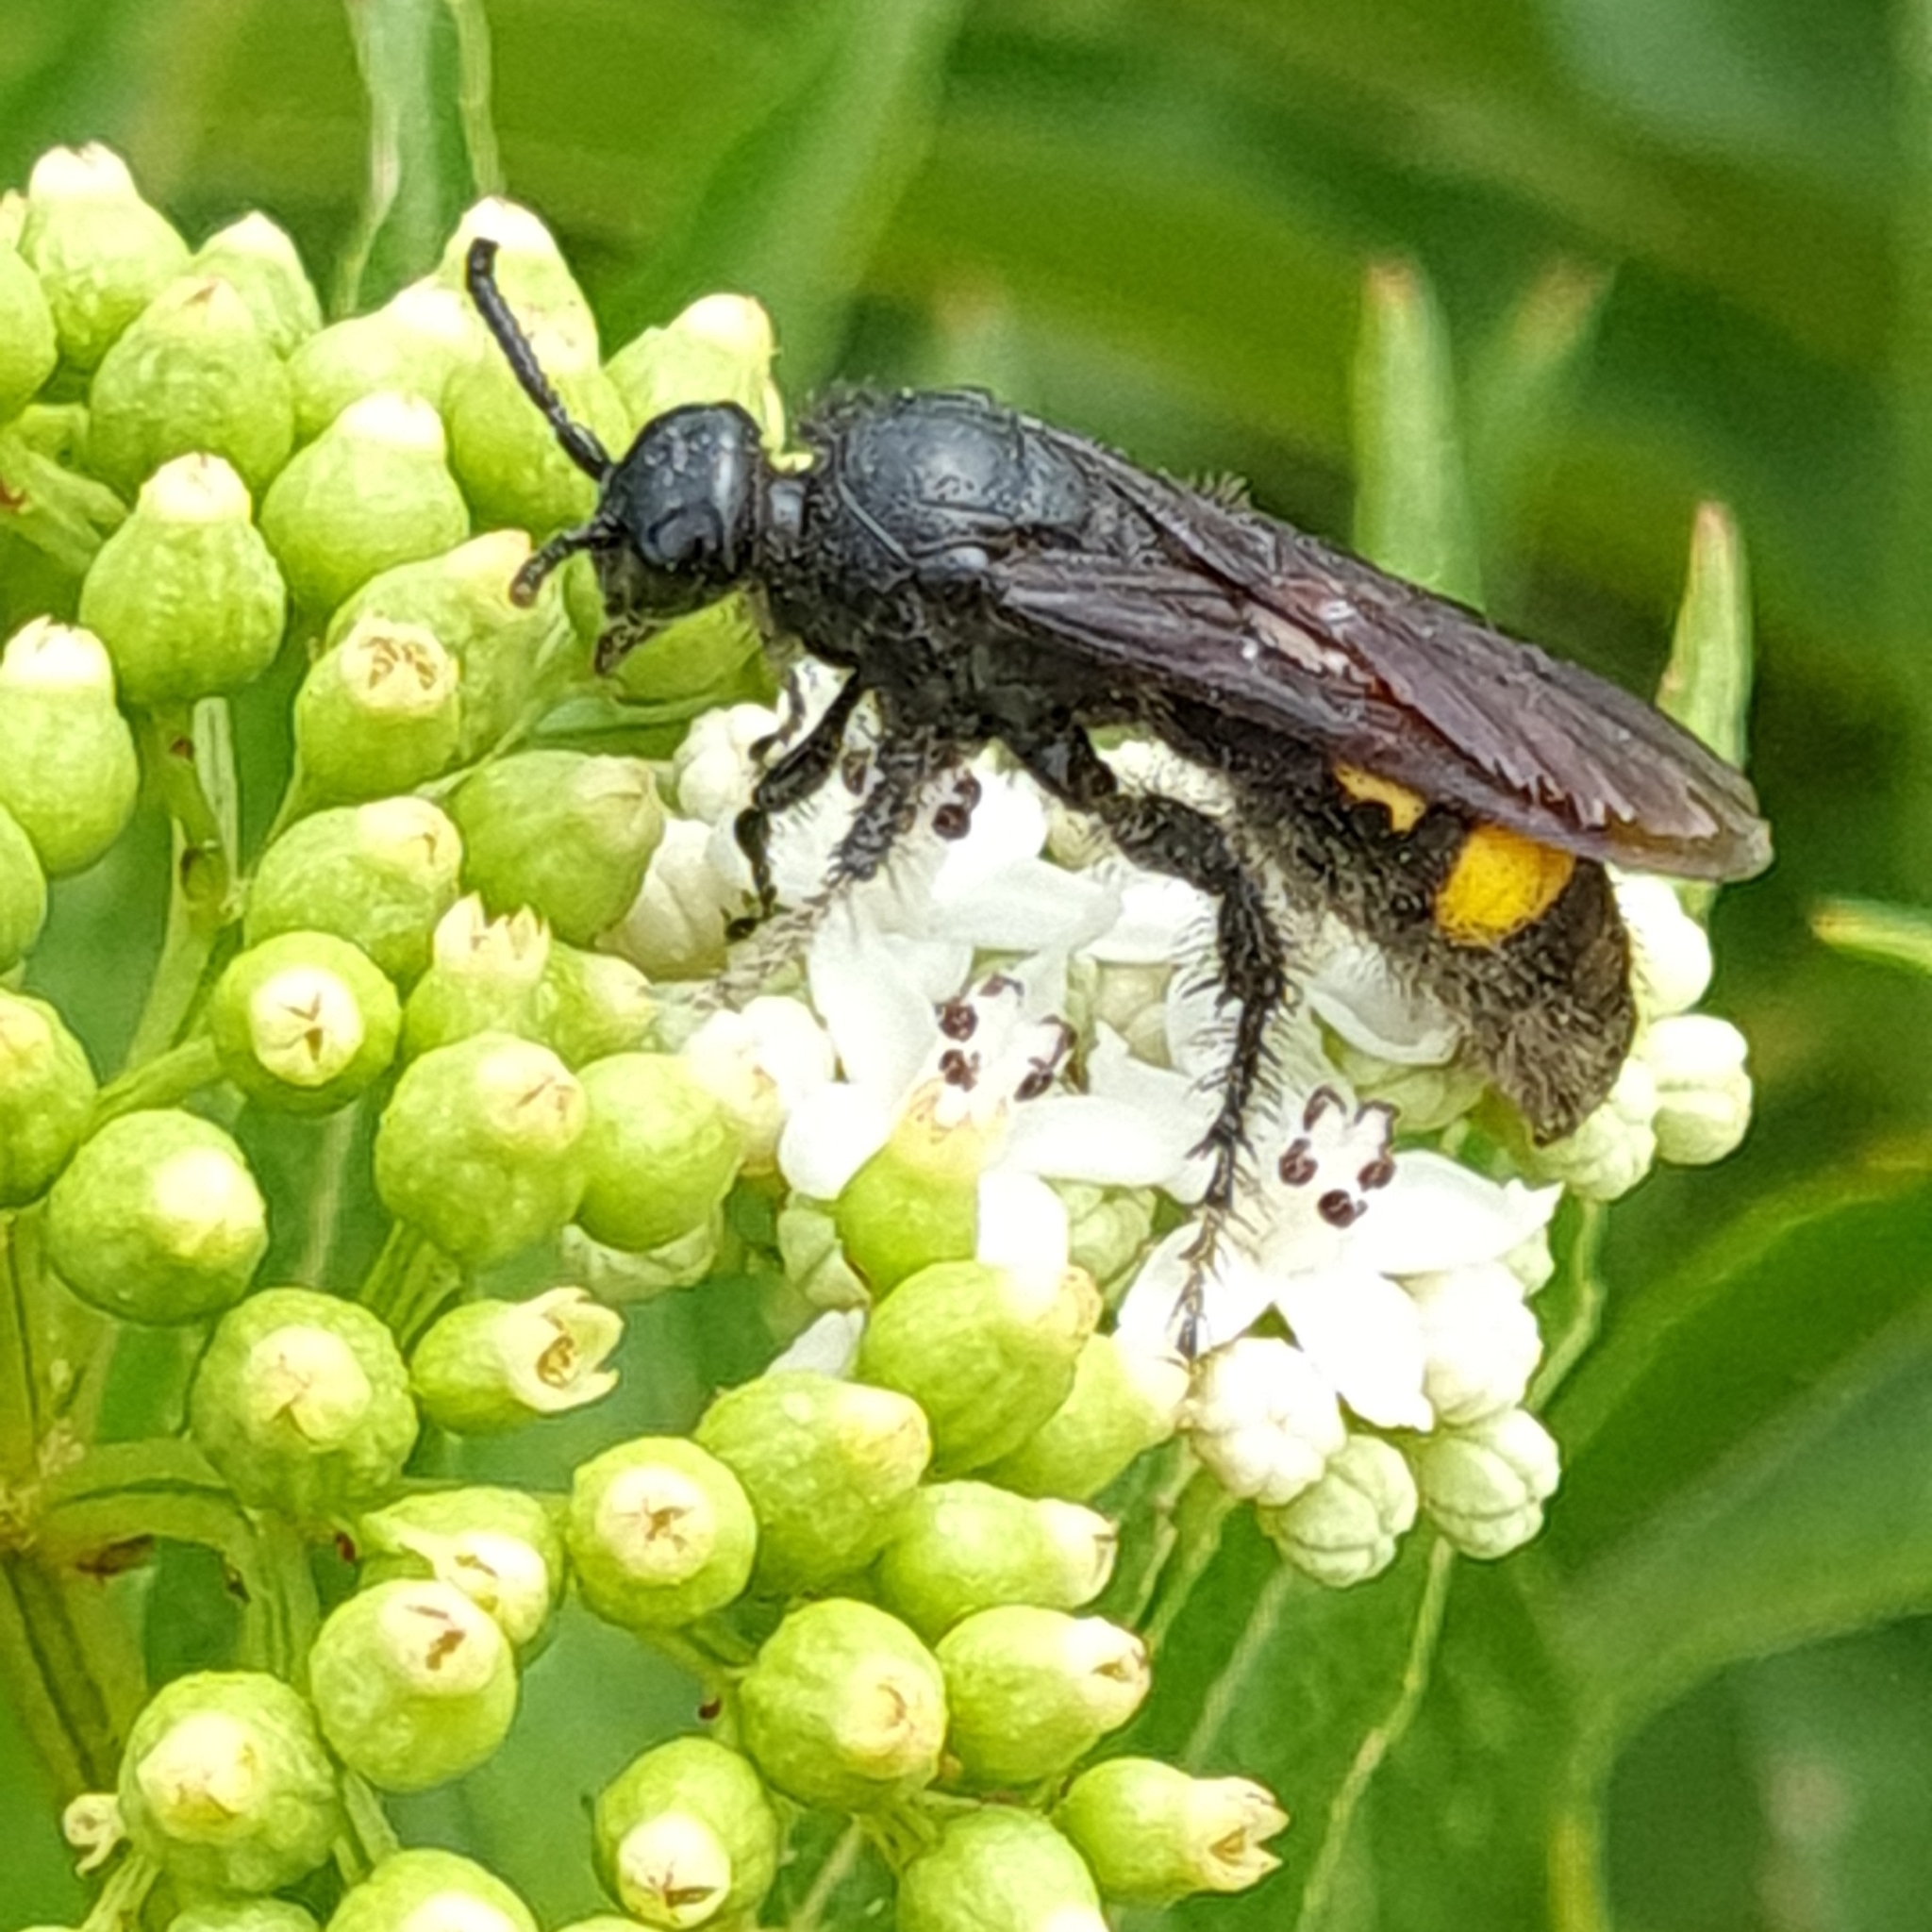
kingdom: Animalia
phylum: Arthropoda
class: Insecta
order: Hymenoptera
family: Scoliidae
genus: Scolia
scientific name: Scolia hirta
